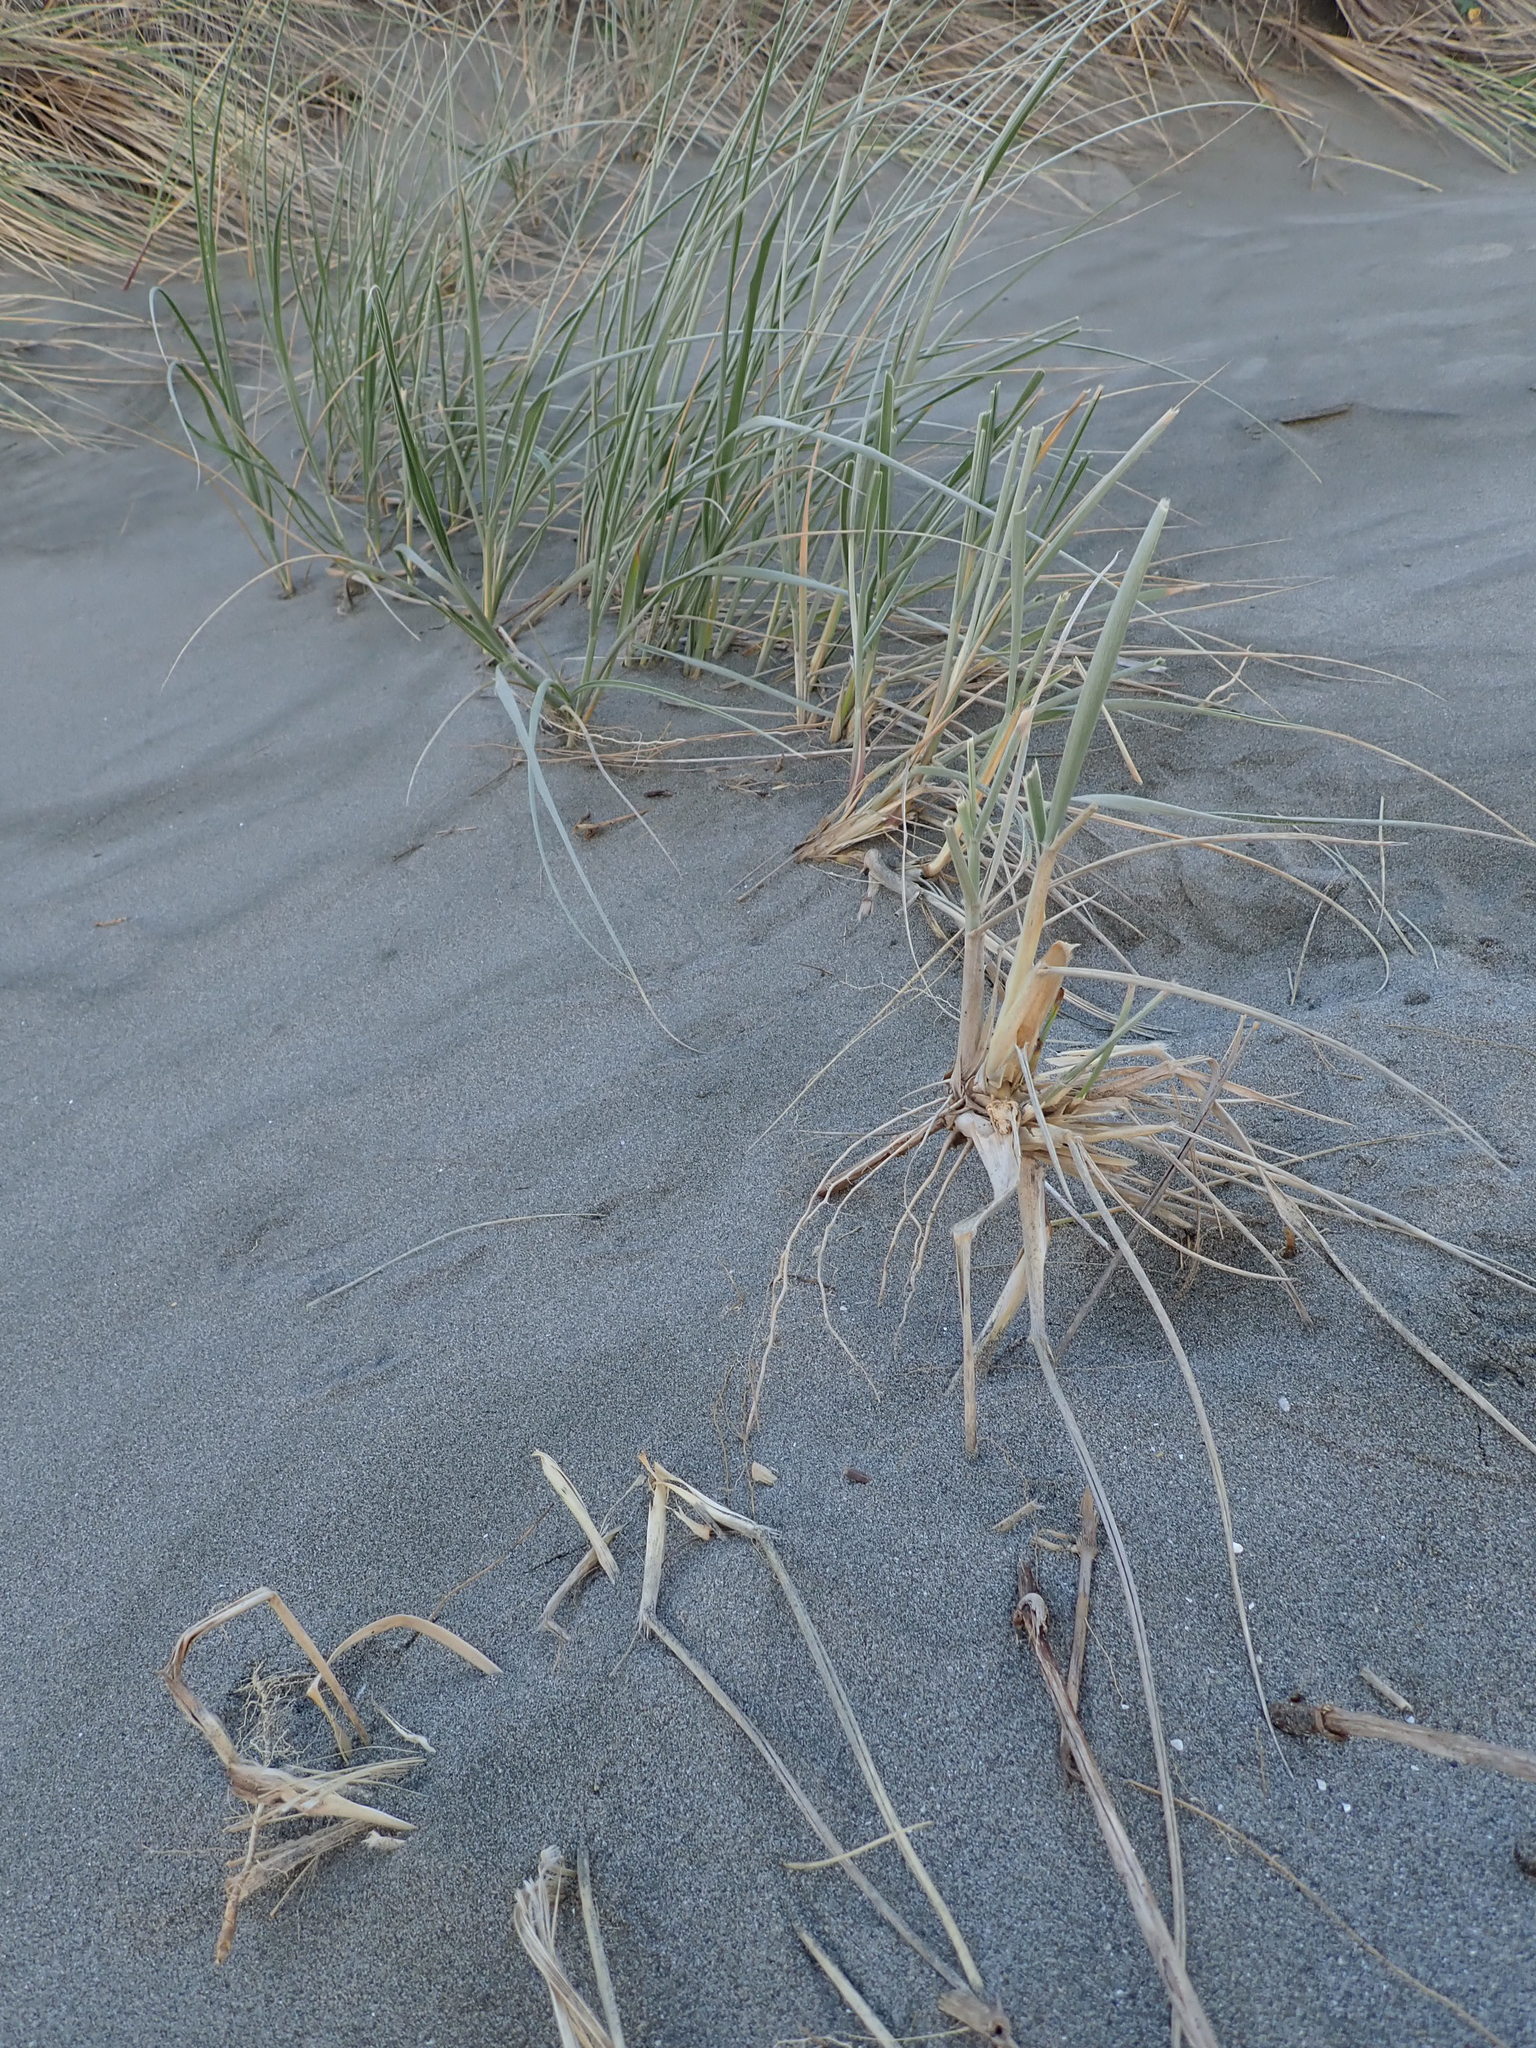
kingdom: Plantae
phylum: Tracheophyta
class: Liliopsida
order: Poales
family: Poaceae
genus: Spinifex
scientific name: Spinifex sericeus
